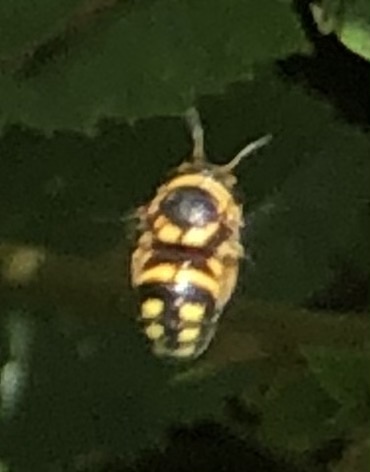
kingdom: Animalia
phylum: Arthropoda
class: Insecta
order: Hymenoptera
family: Megachilidae
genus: Anthidiellum
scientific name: Anthidiellum notatum
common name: Northern rotund-resin bee
